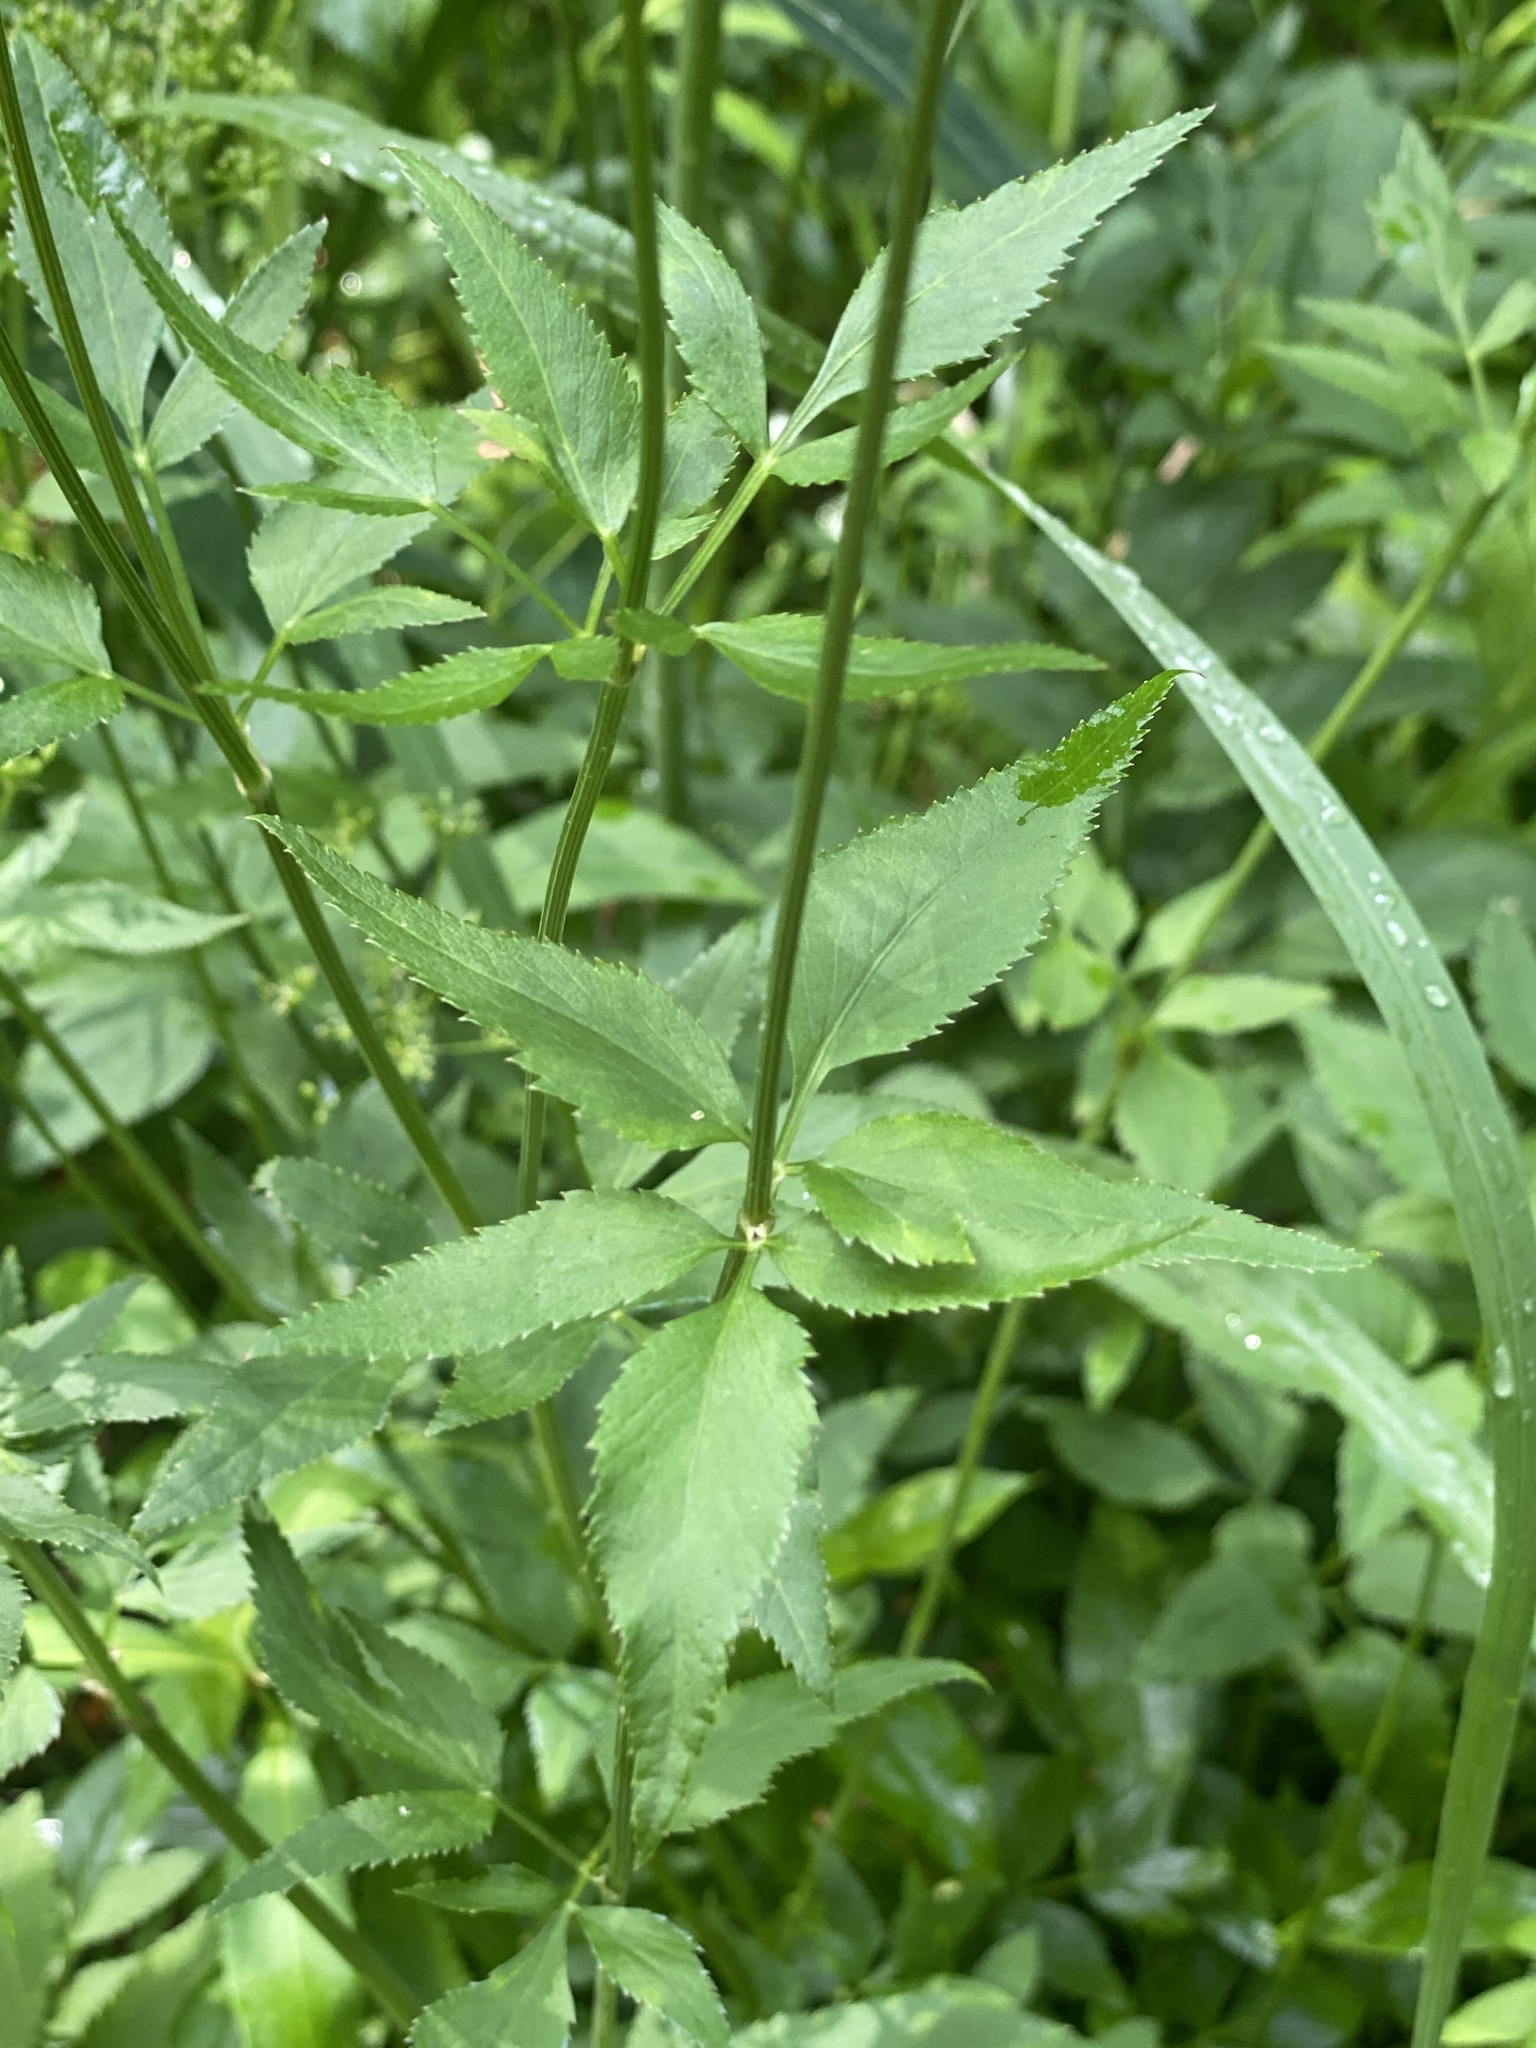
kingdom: Plantae
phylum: Tracheophyta
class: Magnoliopsida
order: Apiales
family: Apiaceae
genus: Zizia
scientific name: Zizia aurea
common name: Golden alexanders
